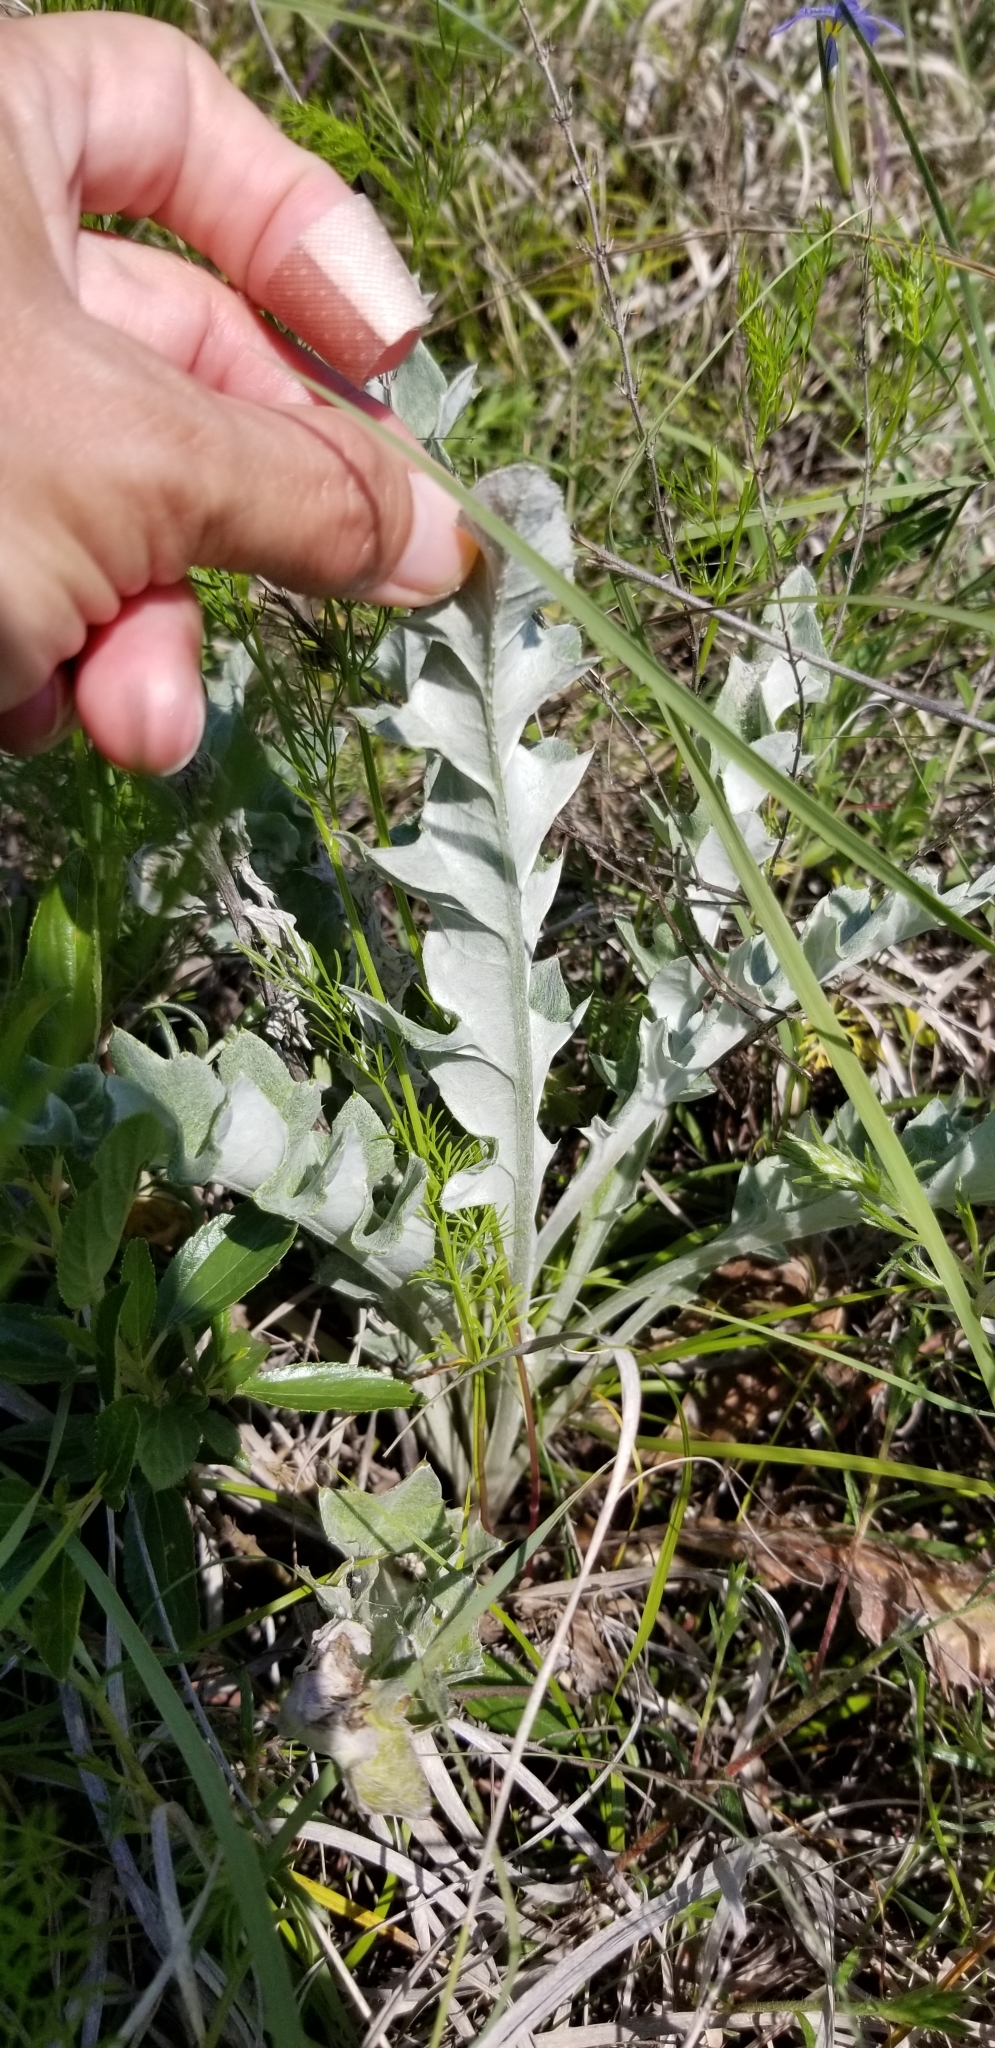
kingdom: Plantae
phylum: Tracheophyta
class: Magnoliopsida
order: Asterales
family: Asteraceae
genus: Cirsium
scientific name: Cirsium undulatum
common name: Pasture thistle
